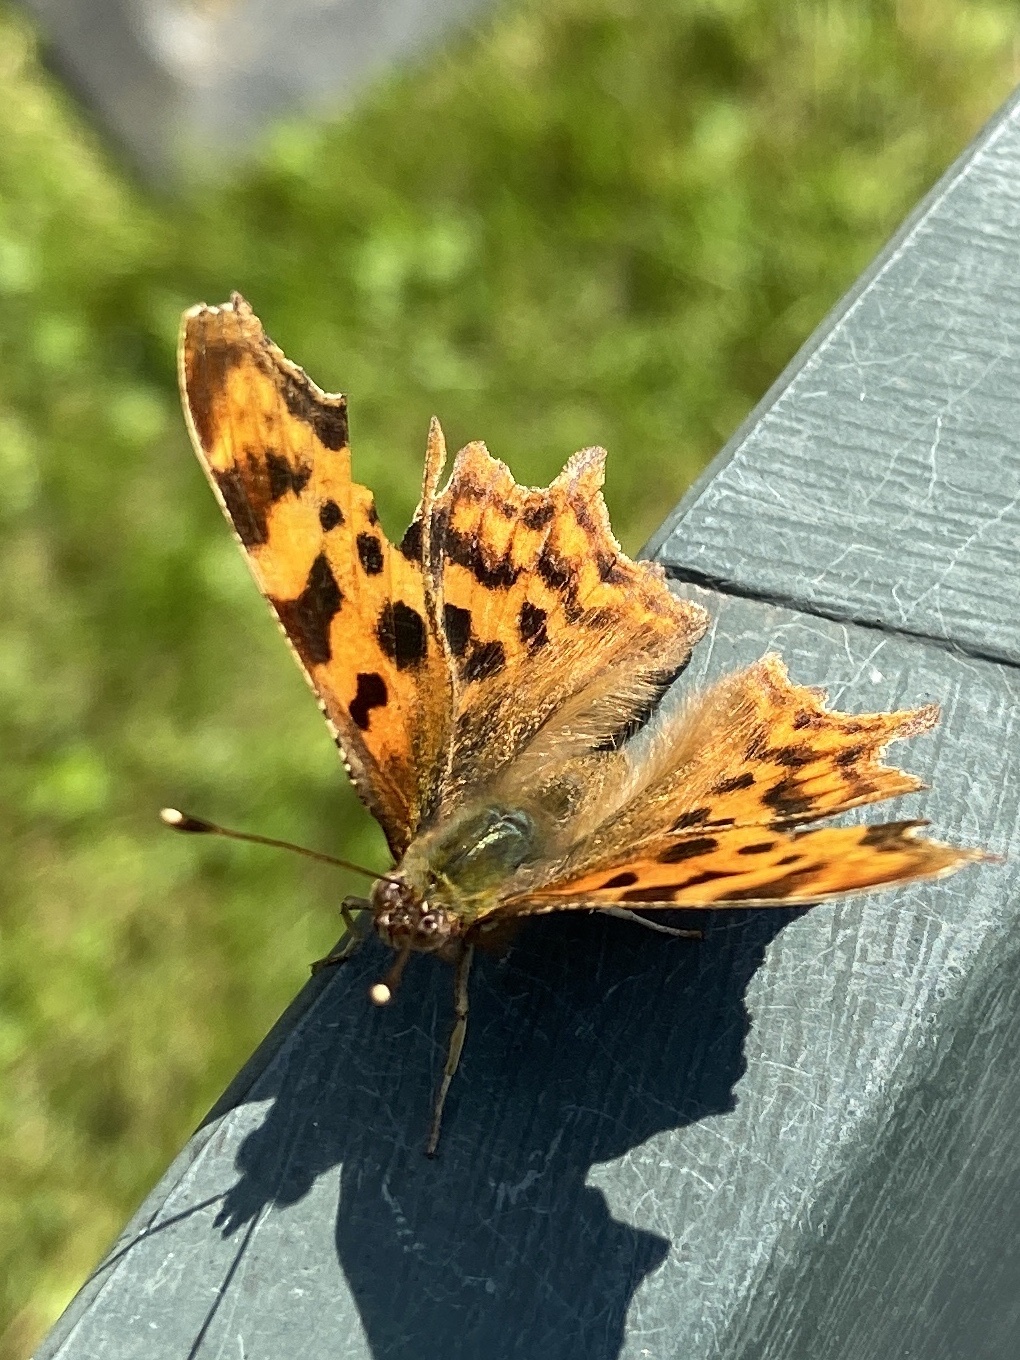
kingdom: Animalia
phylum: Arthropoda
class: Insecta
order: Lepidoptera
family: Nymphalidae
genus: Polygonia
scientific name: Polygonia c-album
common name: Comma
